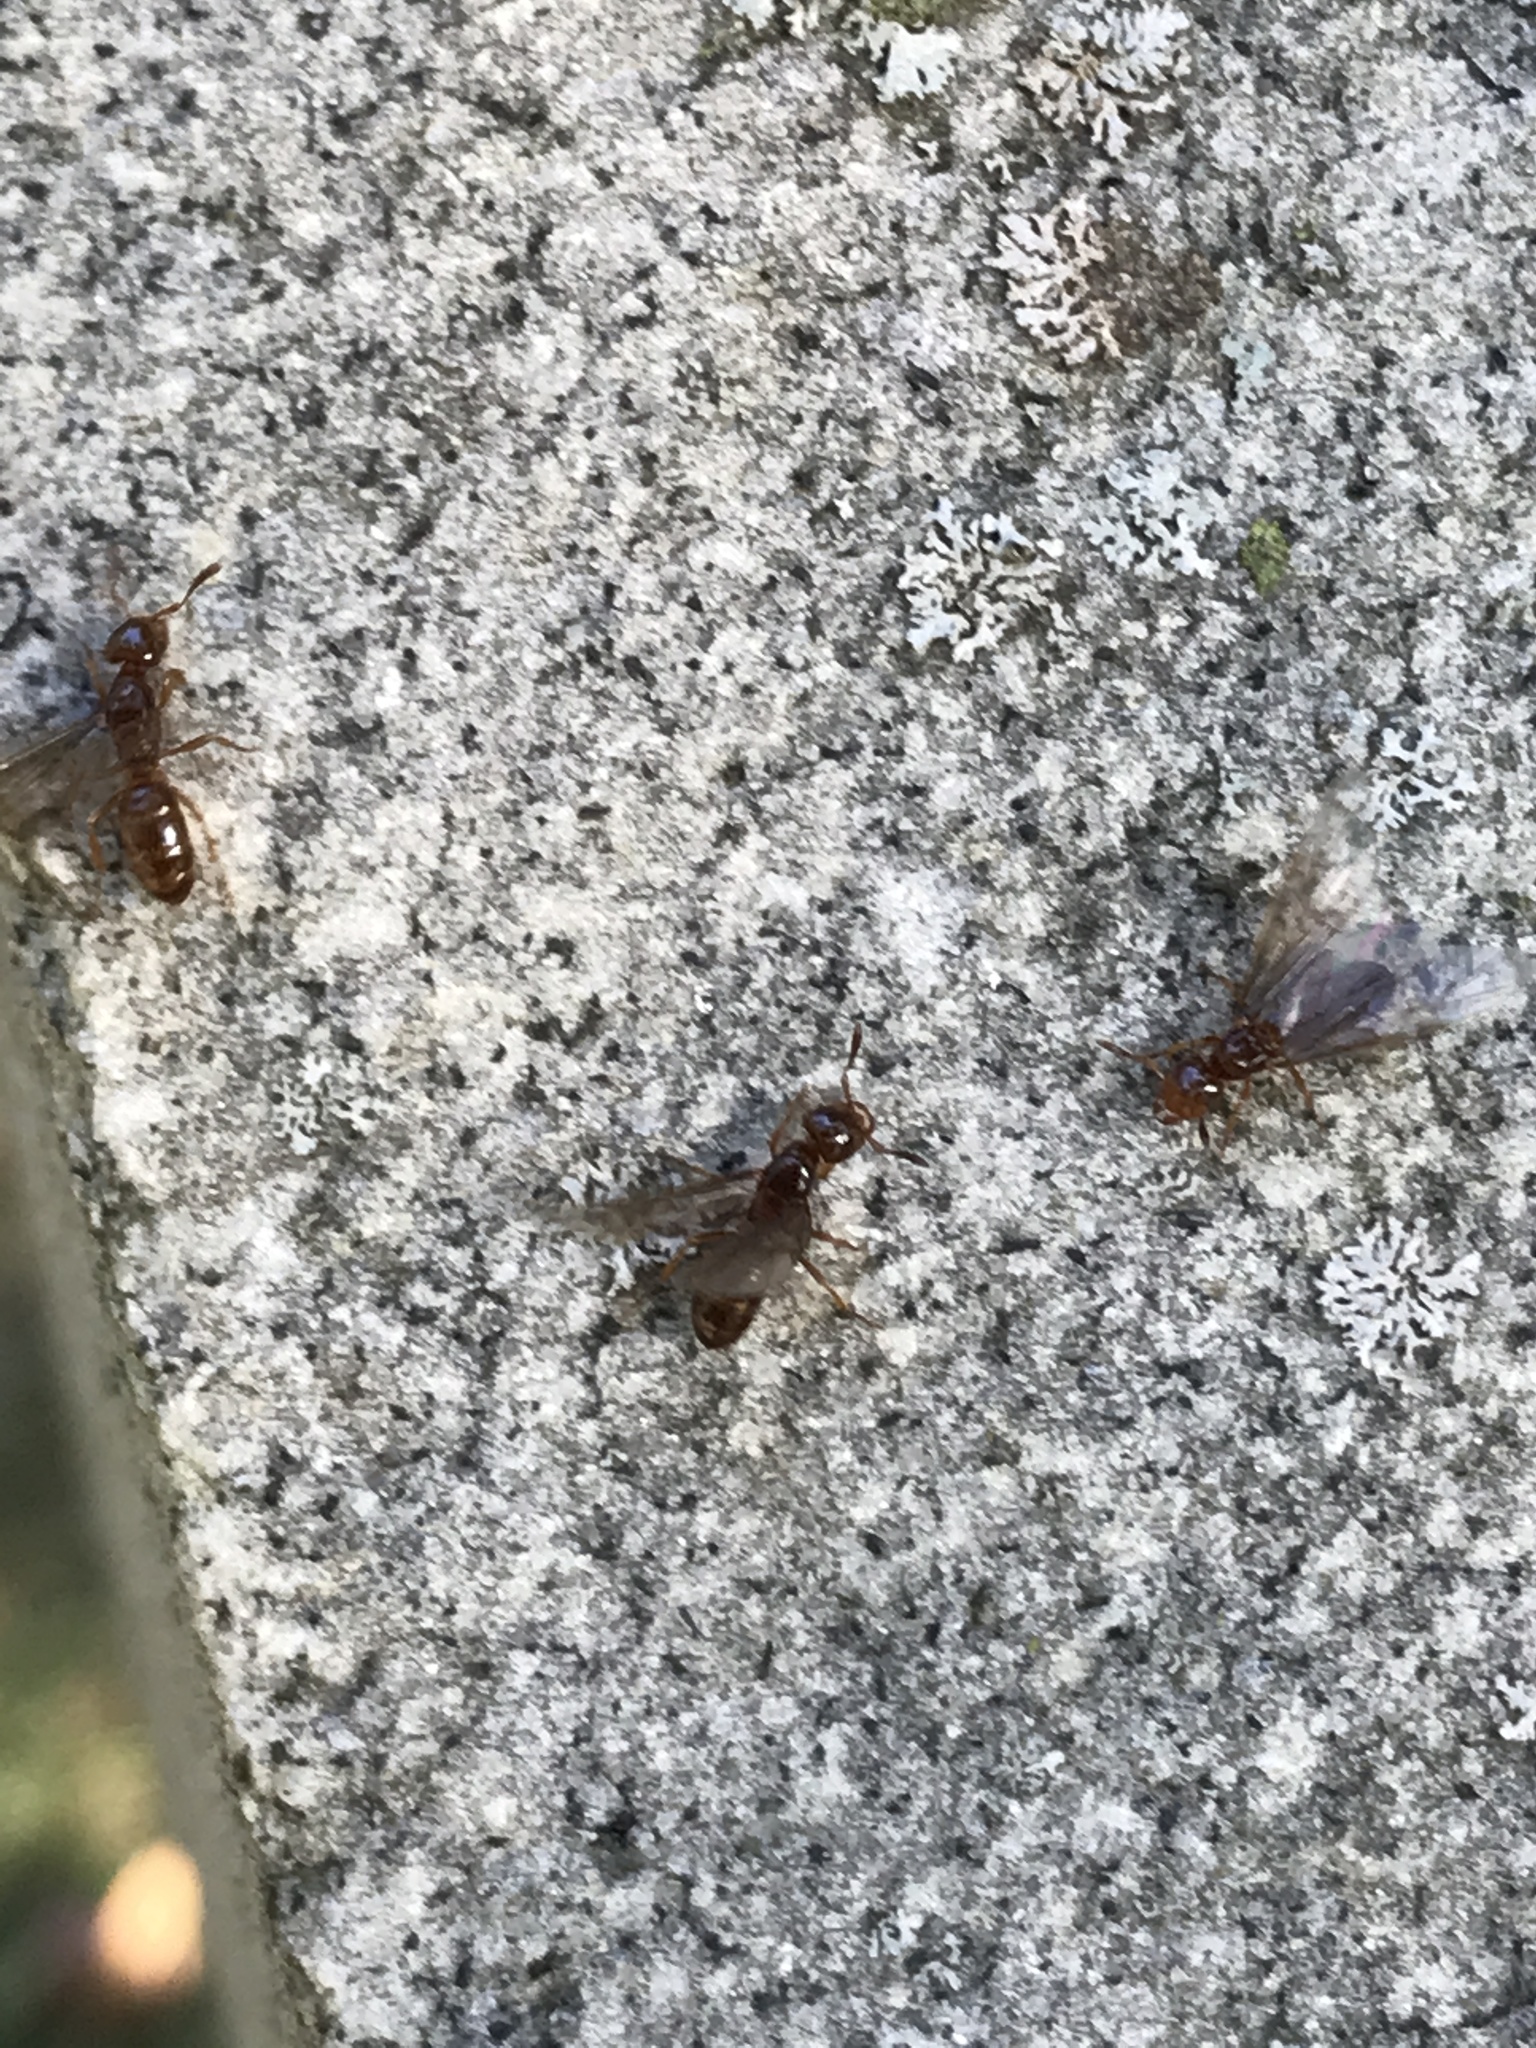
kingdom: Animalia
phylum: Arthropoda
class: Insecta
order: Hymenoptera
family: Formicidae
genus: Lasius
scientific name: Lasius claviger
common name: Common citronella ant
